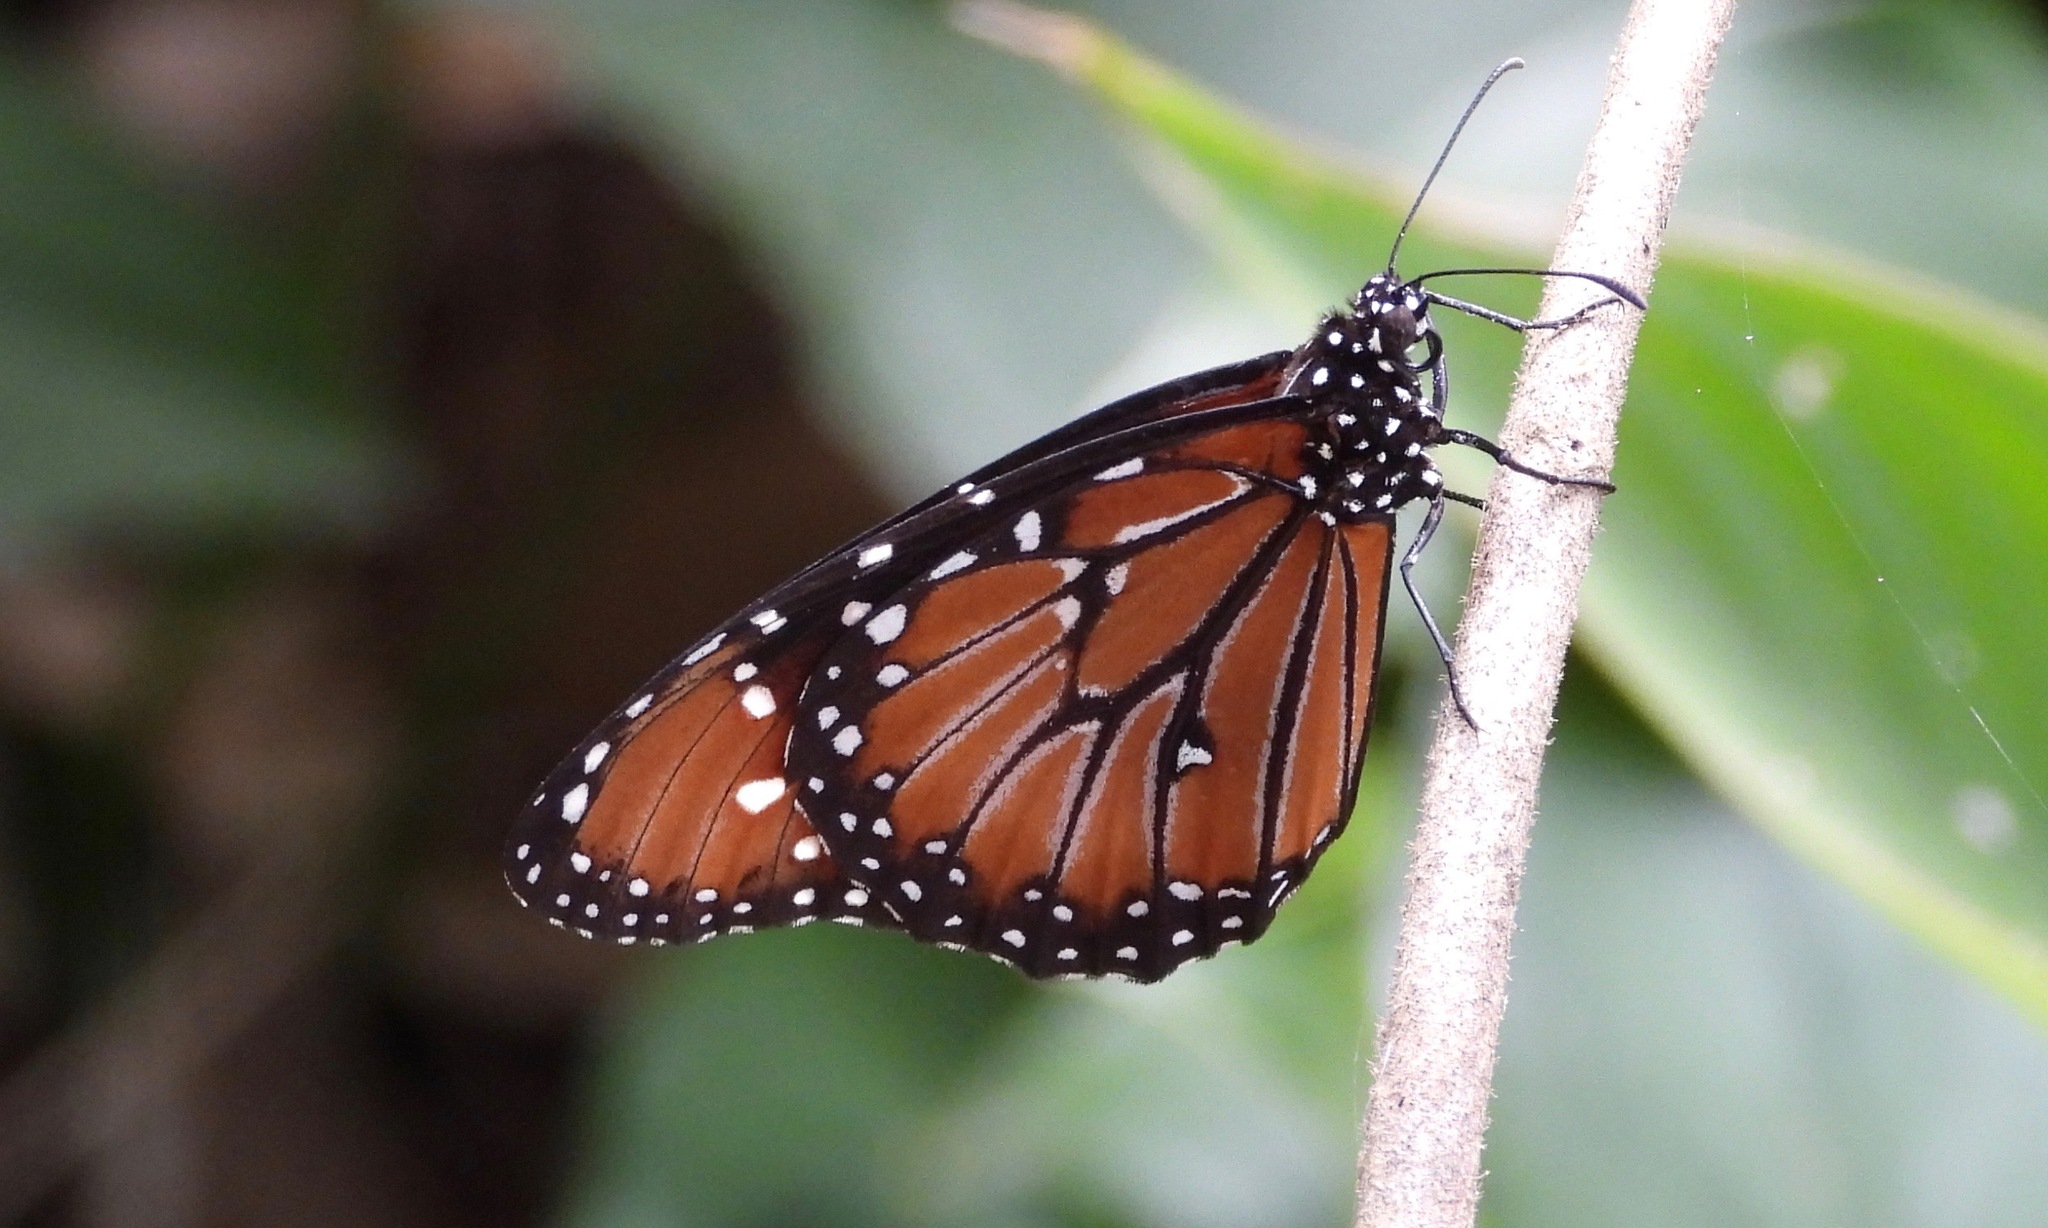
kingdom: Animalia
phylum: Arthropoda
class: Insecta
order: Lepidoptera
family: Nymphalidae
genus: Danaus
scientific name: Danaus gilippus
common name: Queen
